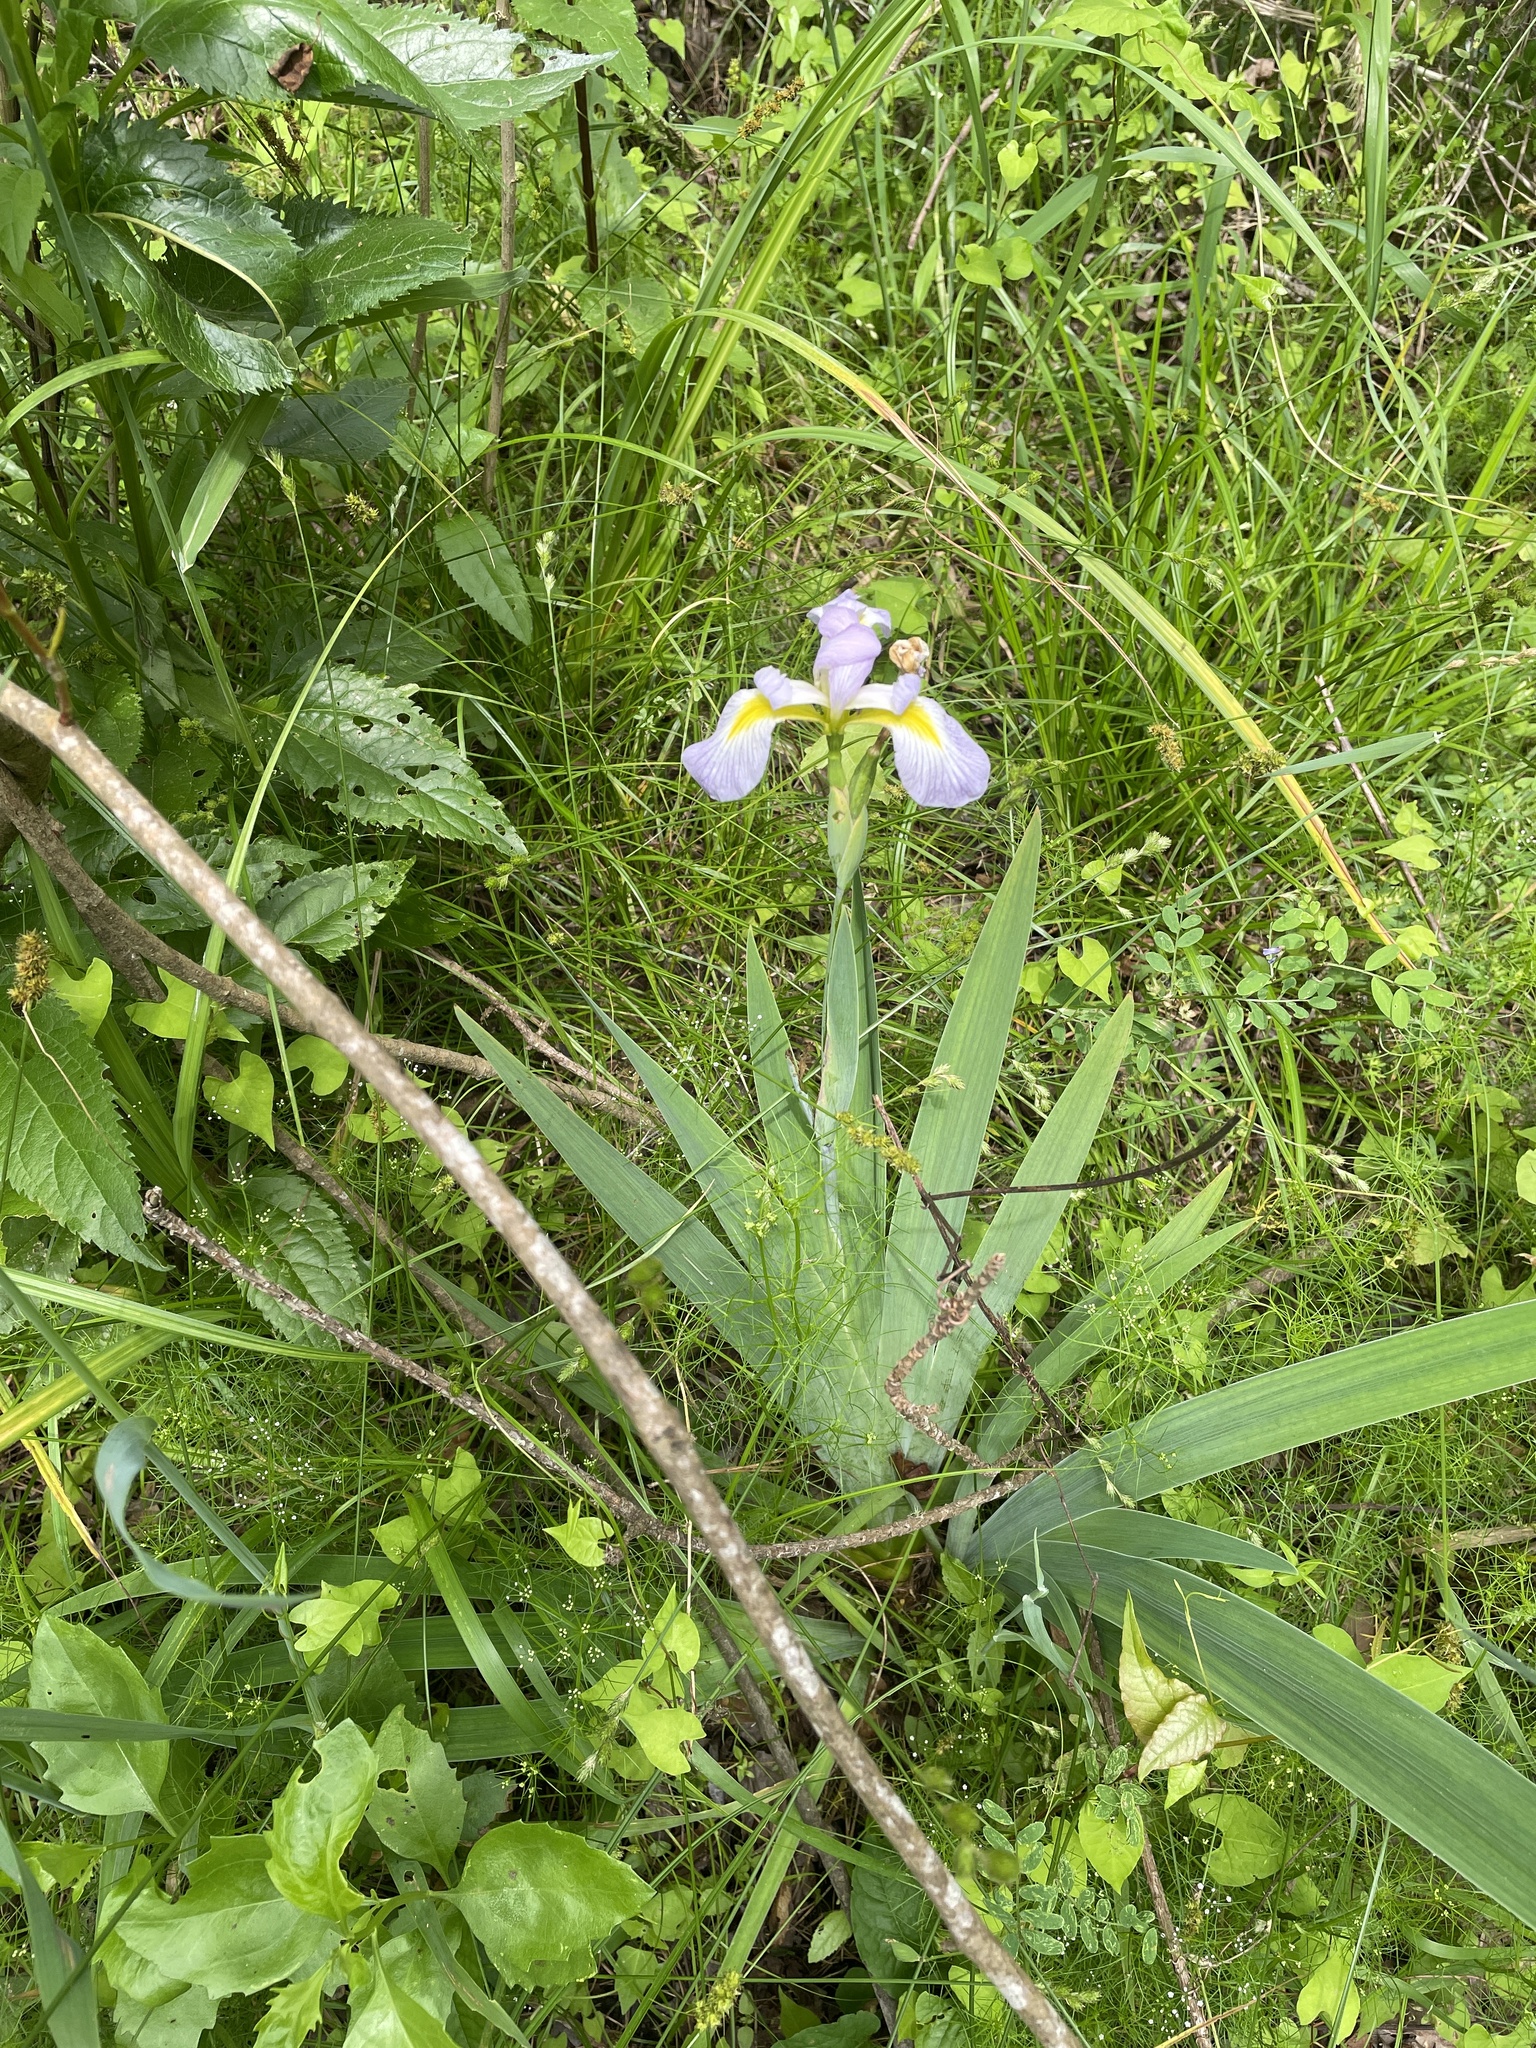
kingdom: Plantae
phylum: Tracheophyta
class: Liliopsida
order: Asparagales
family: Iridaceae
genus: Iris
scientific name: Iris virginica
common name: Southern blue flag
